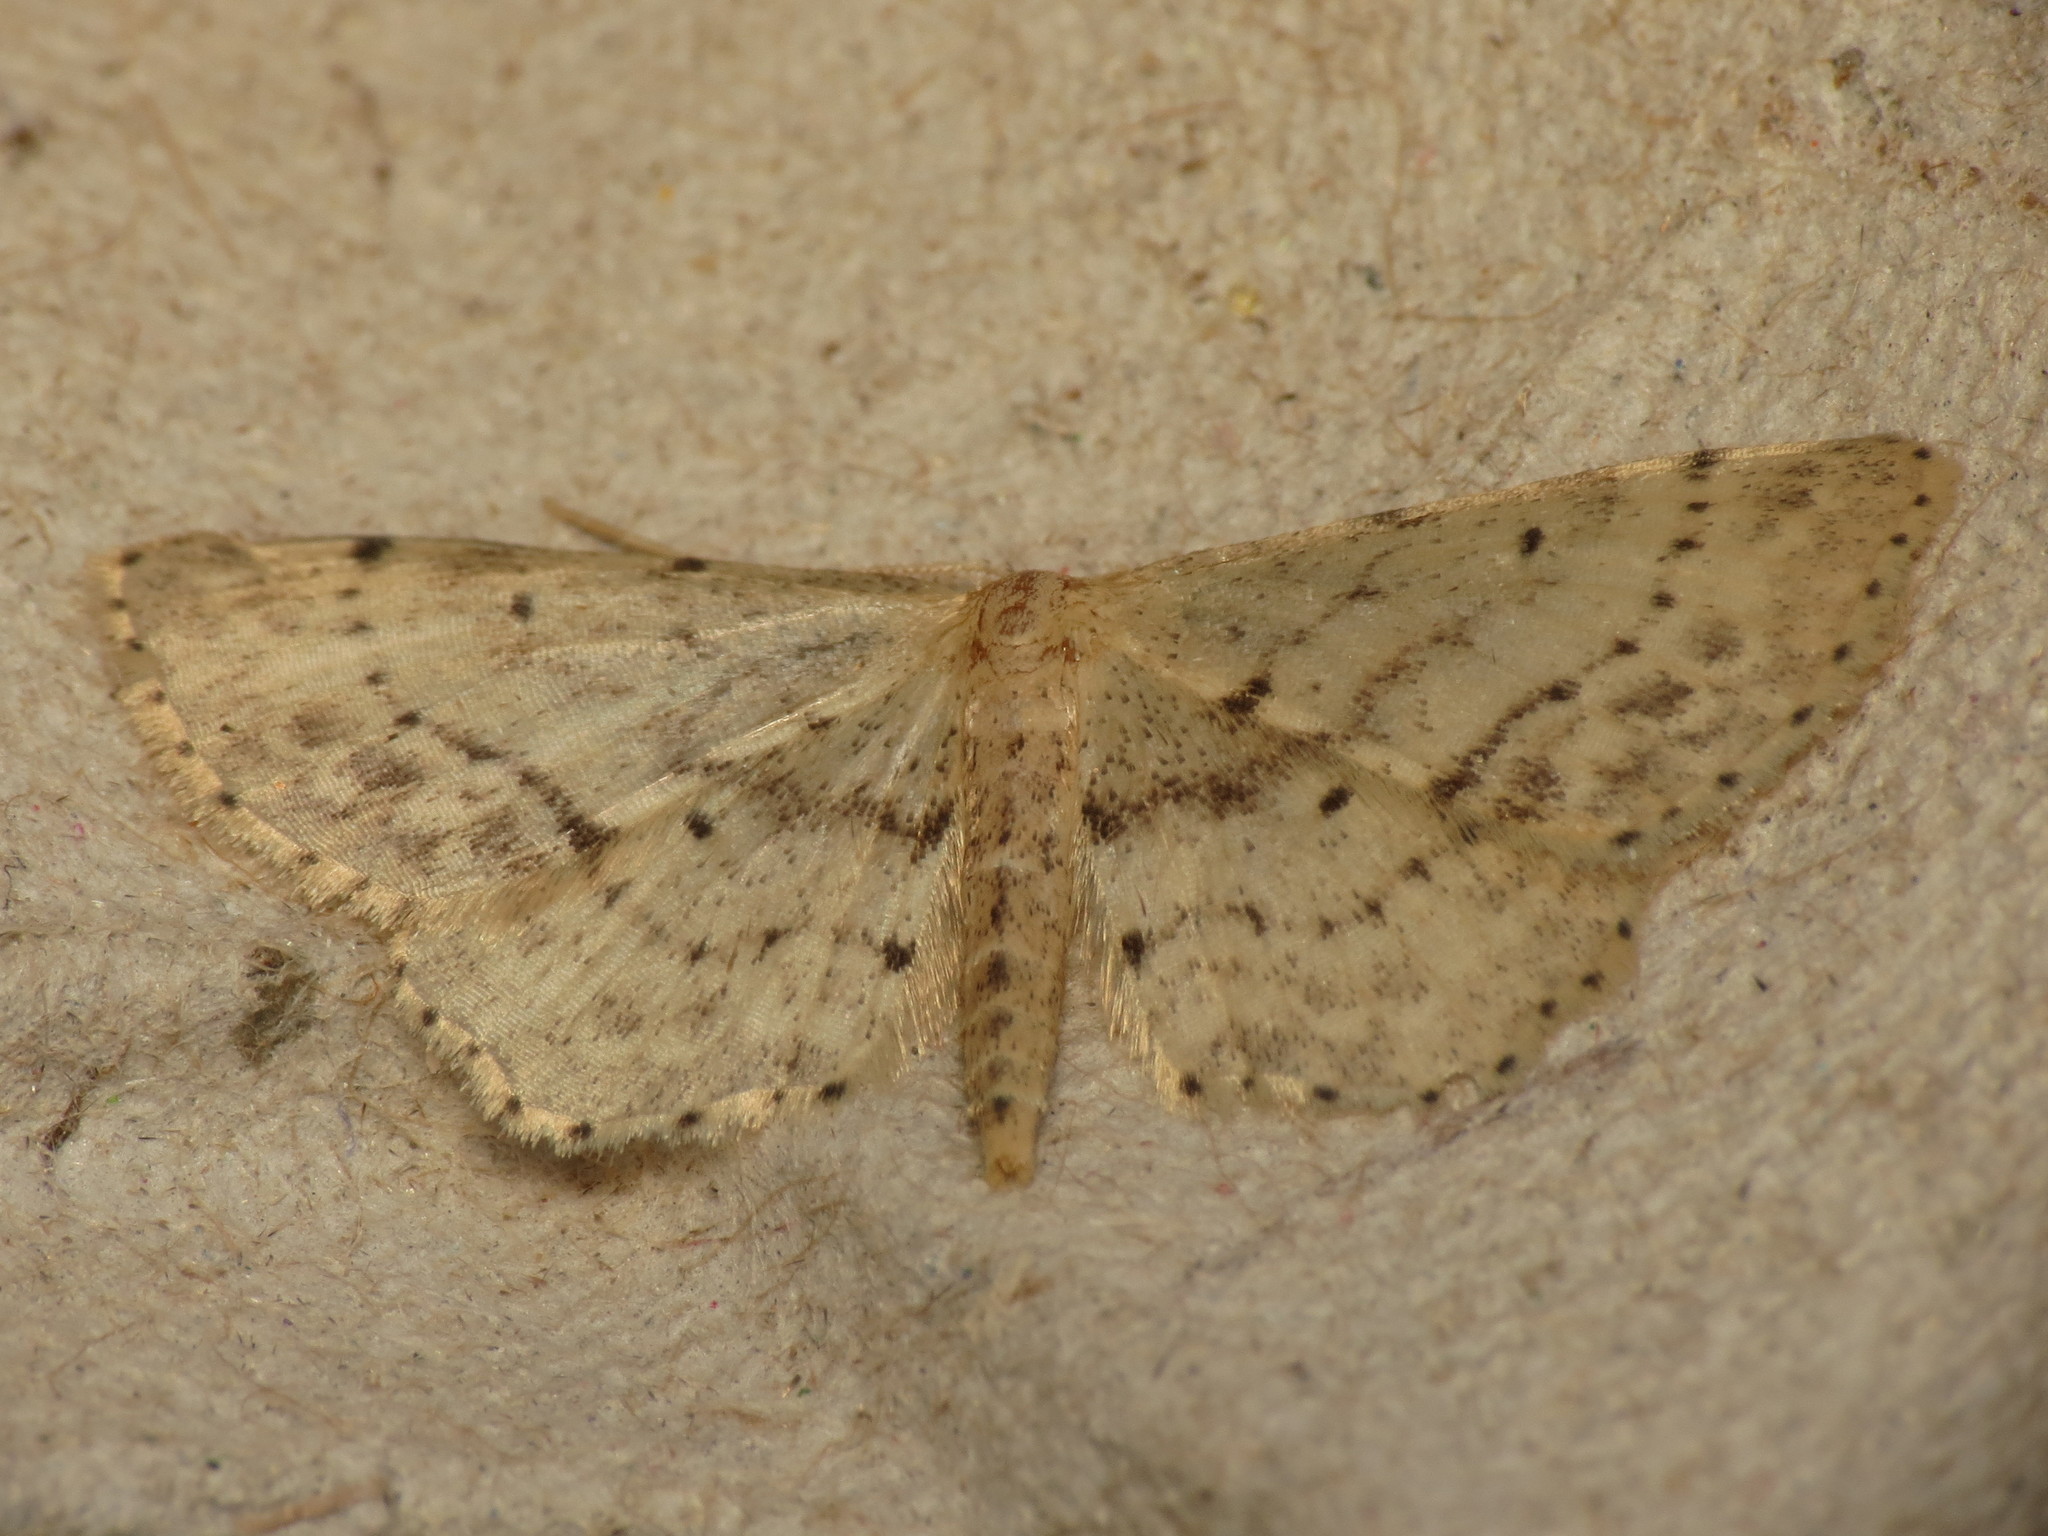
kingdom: Animalia
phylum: Arthropoda
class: Insecta
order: Lepidoptera
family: Geometridae
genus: Idaea
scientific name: Idaea dimidiata
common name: Single-dotted wave
